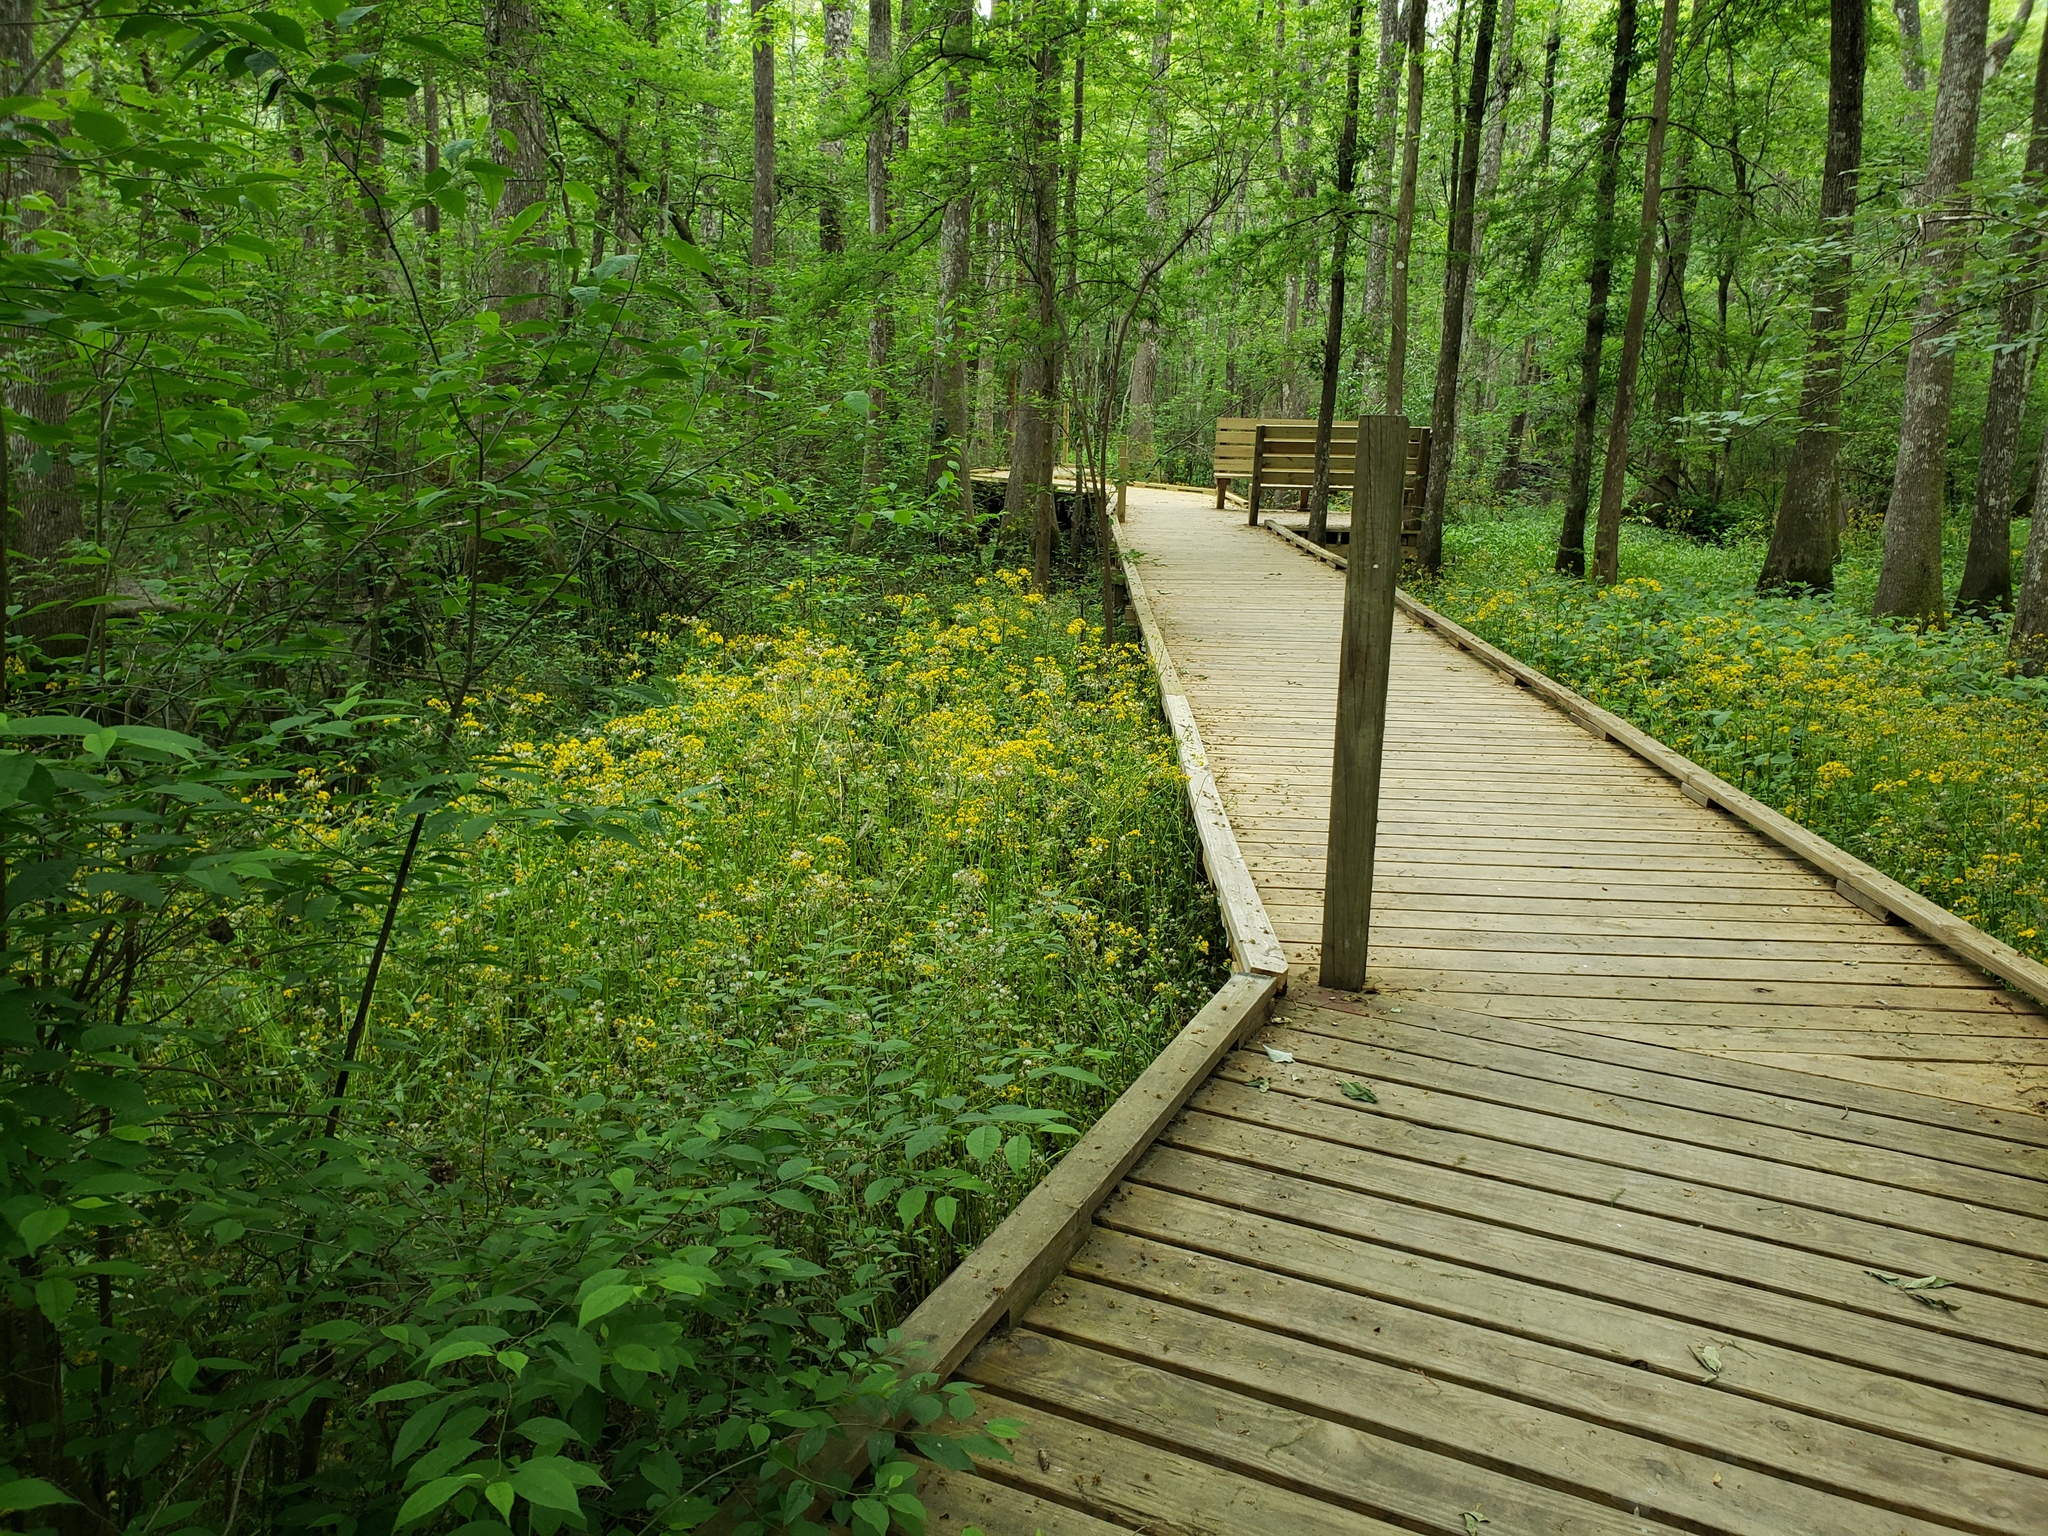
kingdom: Plantae
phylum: Tracheophyta
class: Magnoliopsida
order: Asterales
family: Asteraceae
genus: Packera
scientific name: Packera glabella
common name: Butterweed
